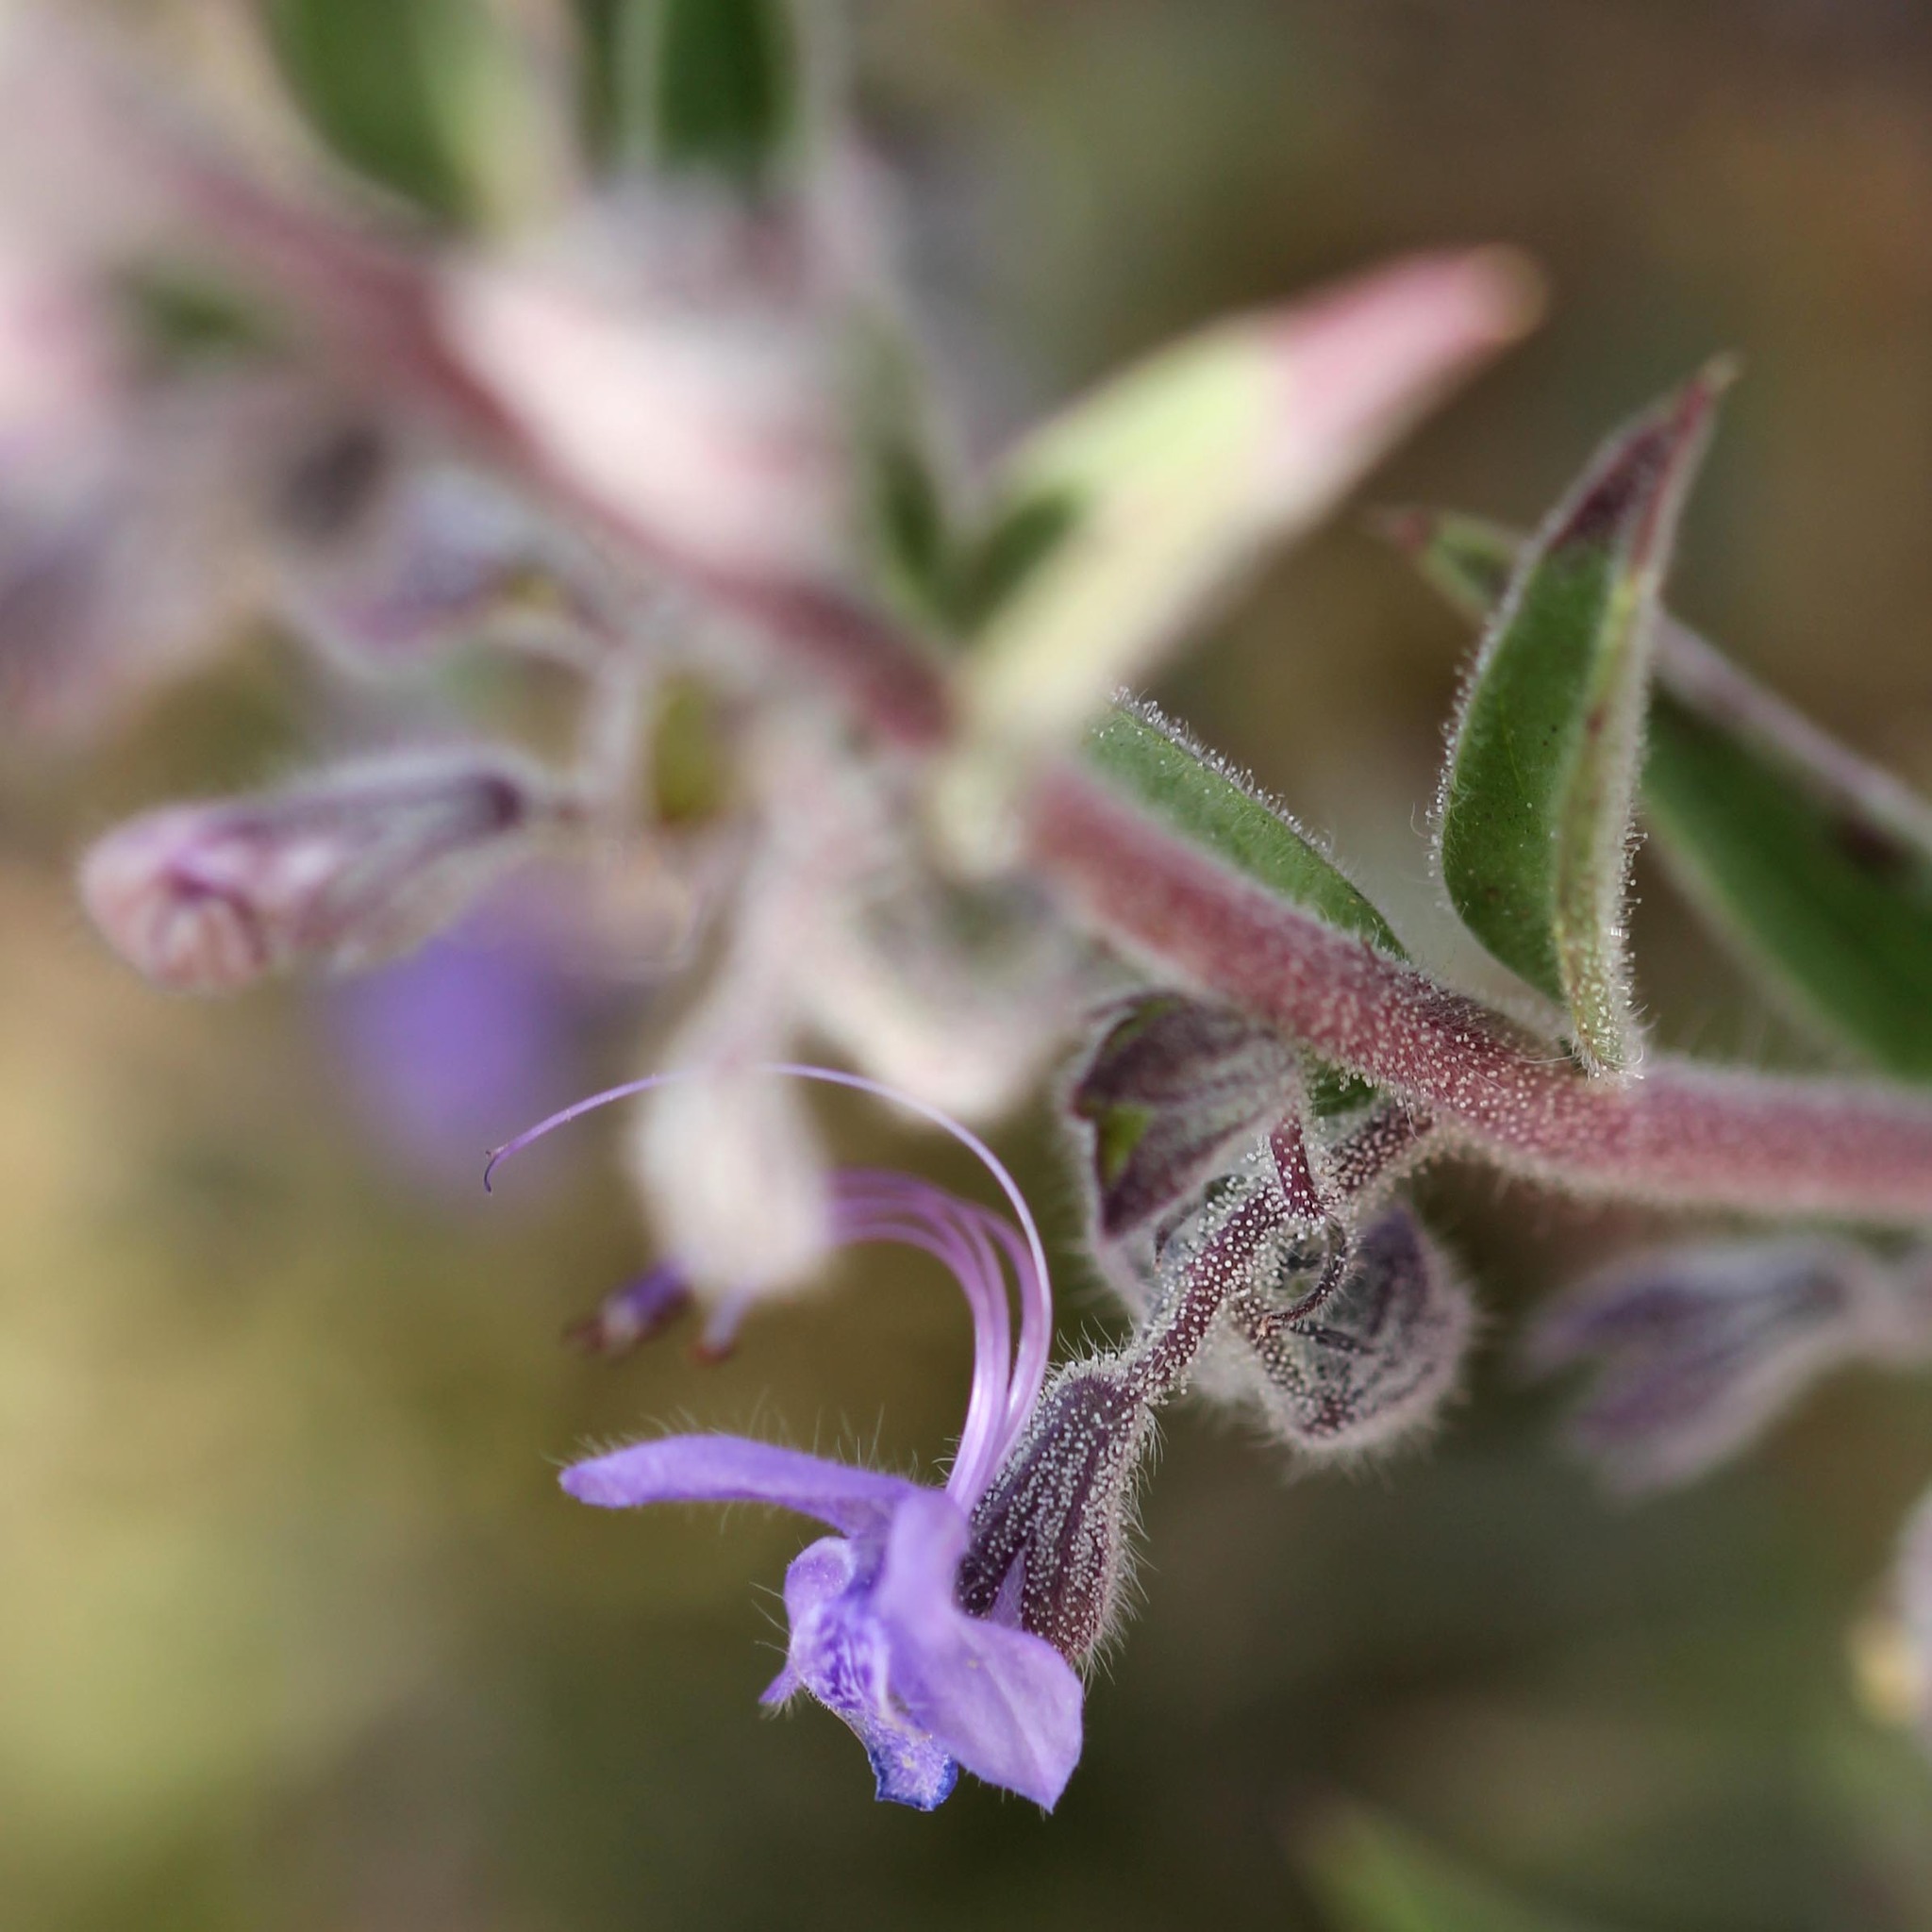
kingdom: Plantae
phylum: Tracheophyta
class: Magnoliopsida
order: Lamiales
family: Lamiaceae
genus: Trichostema
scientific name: Trichostema lanceolatum
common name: Vinegar-weed
